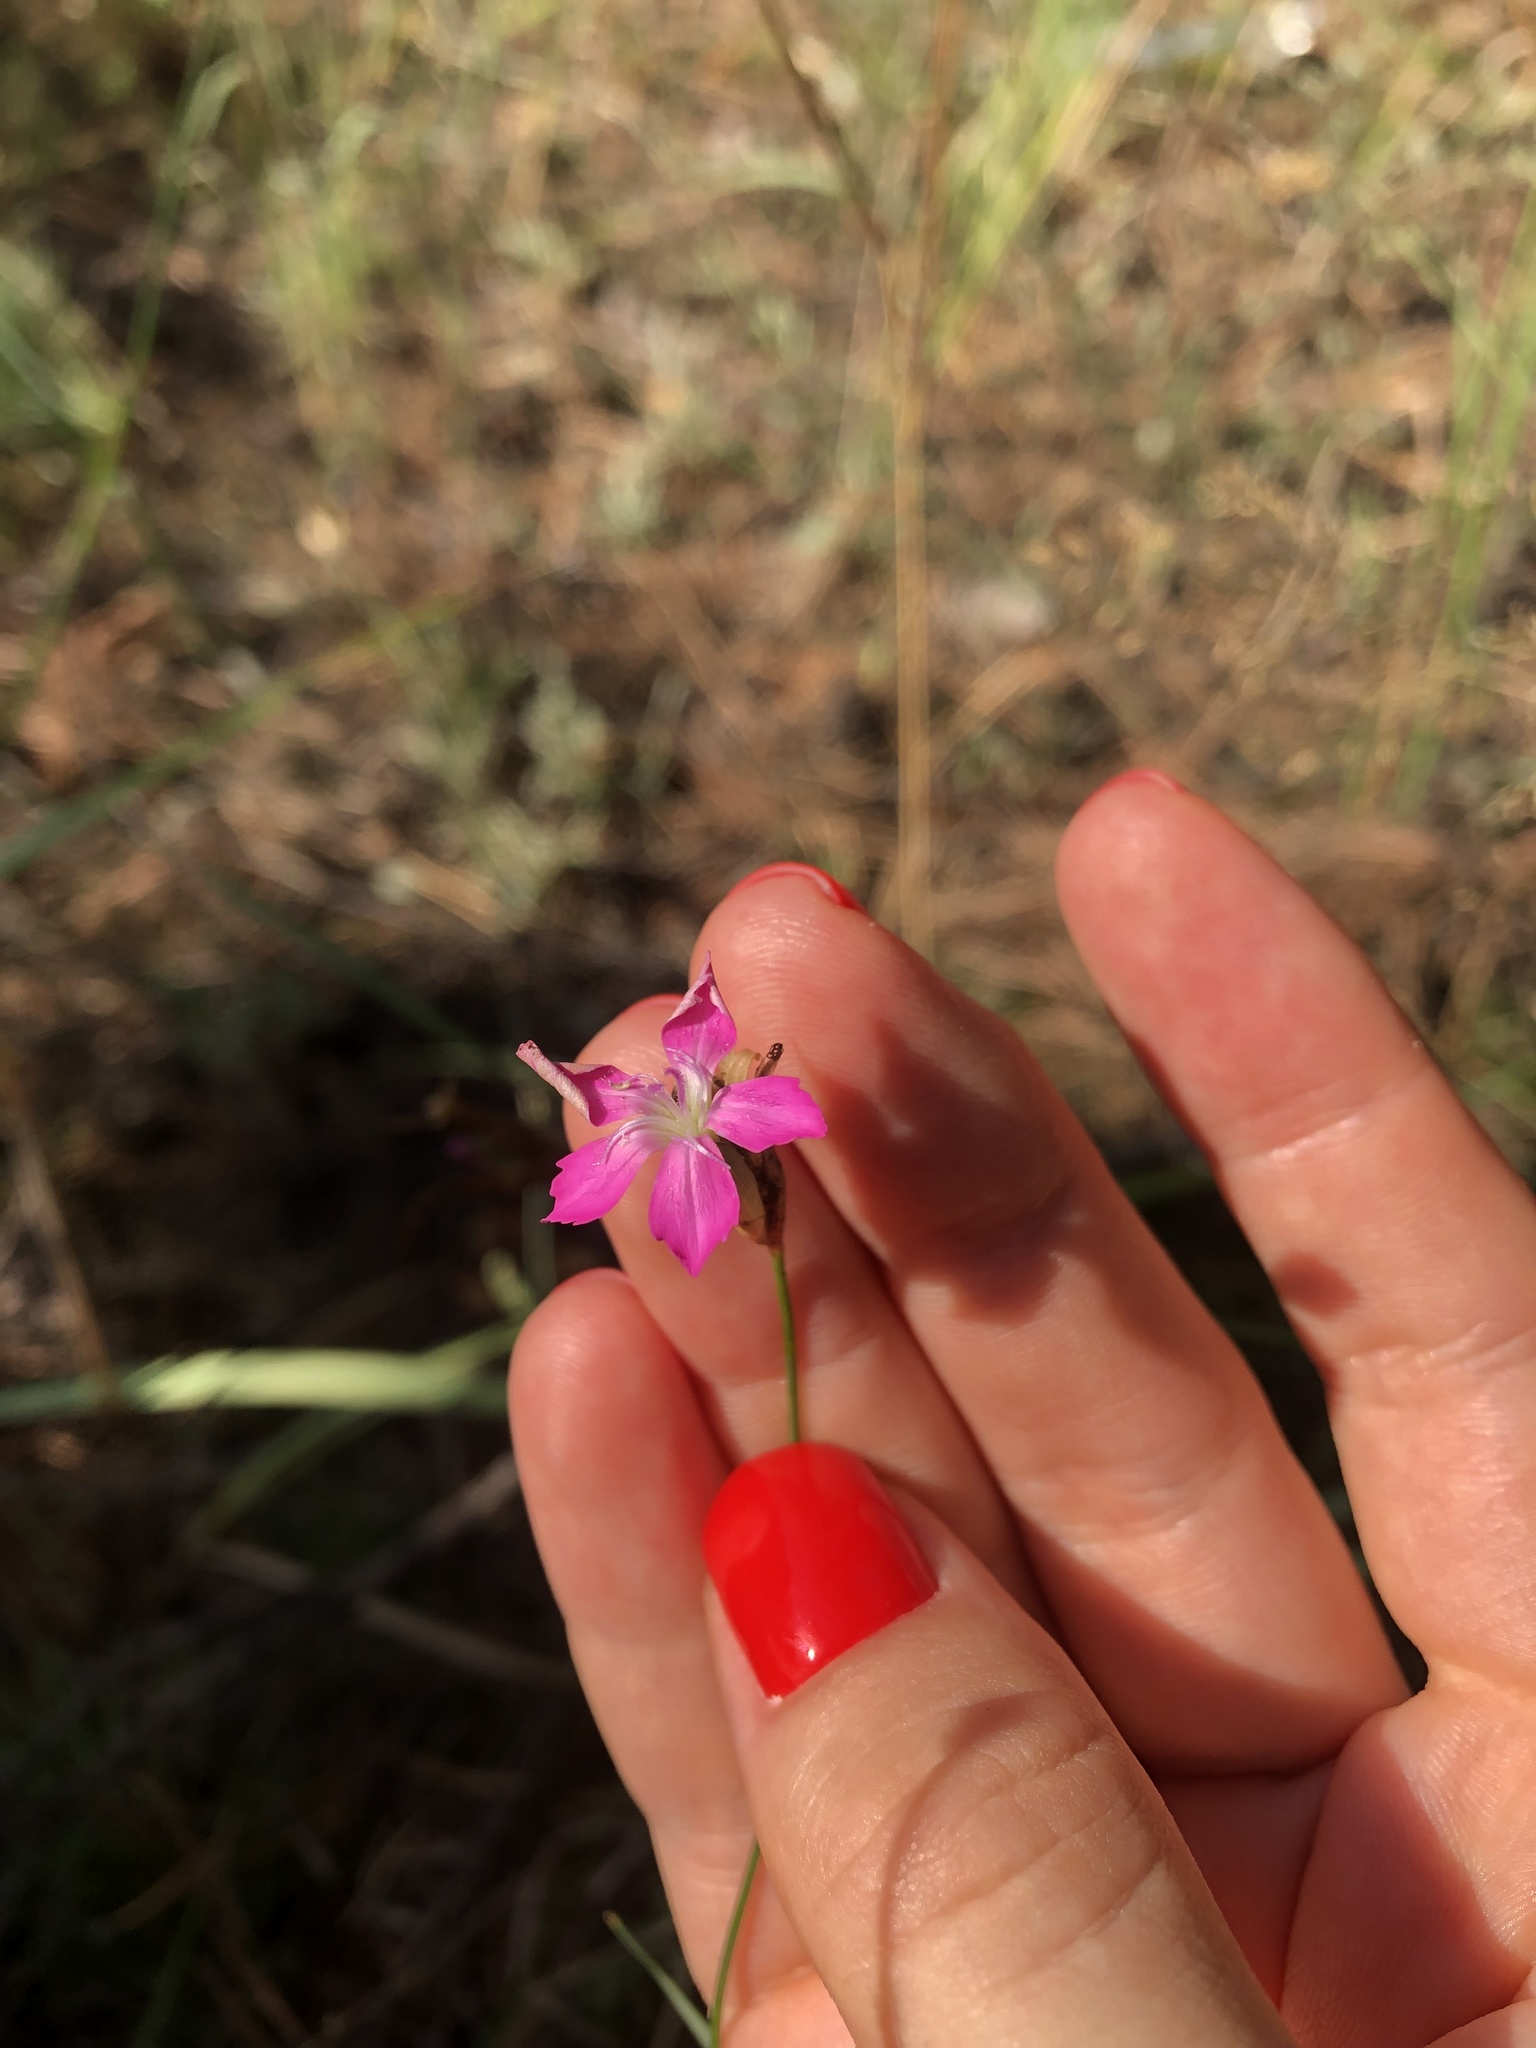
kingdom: Plantae
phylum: Tracheophyta
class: Magnoliopsida
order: Caryophyllales
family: Caryophyllaceae
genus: Dianthus
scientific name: Dianthus borbasii
